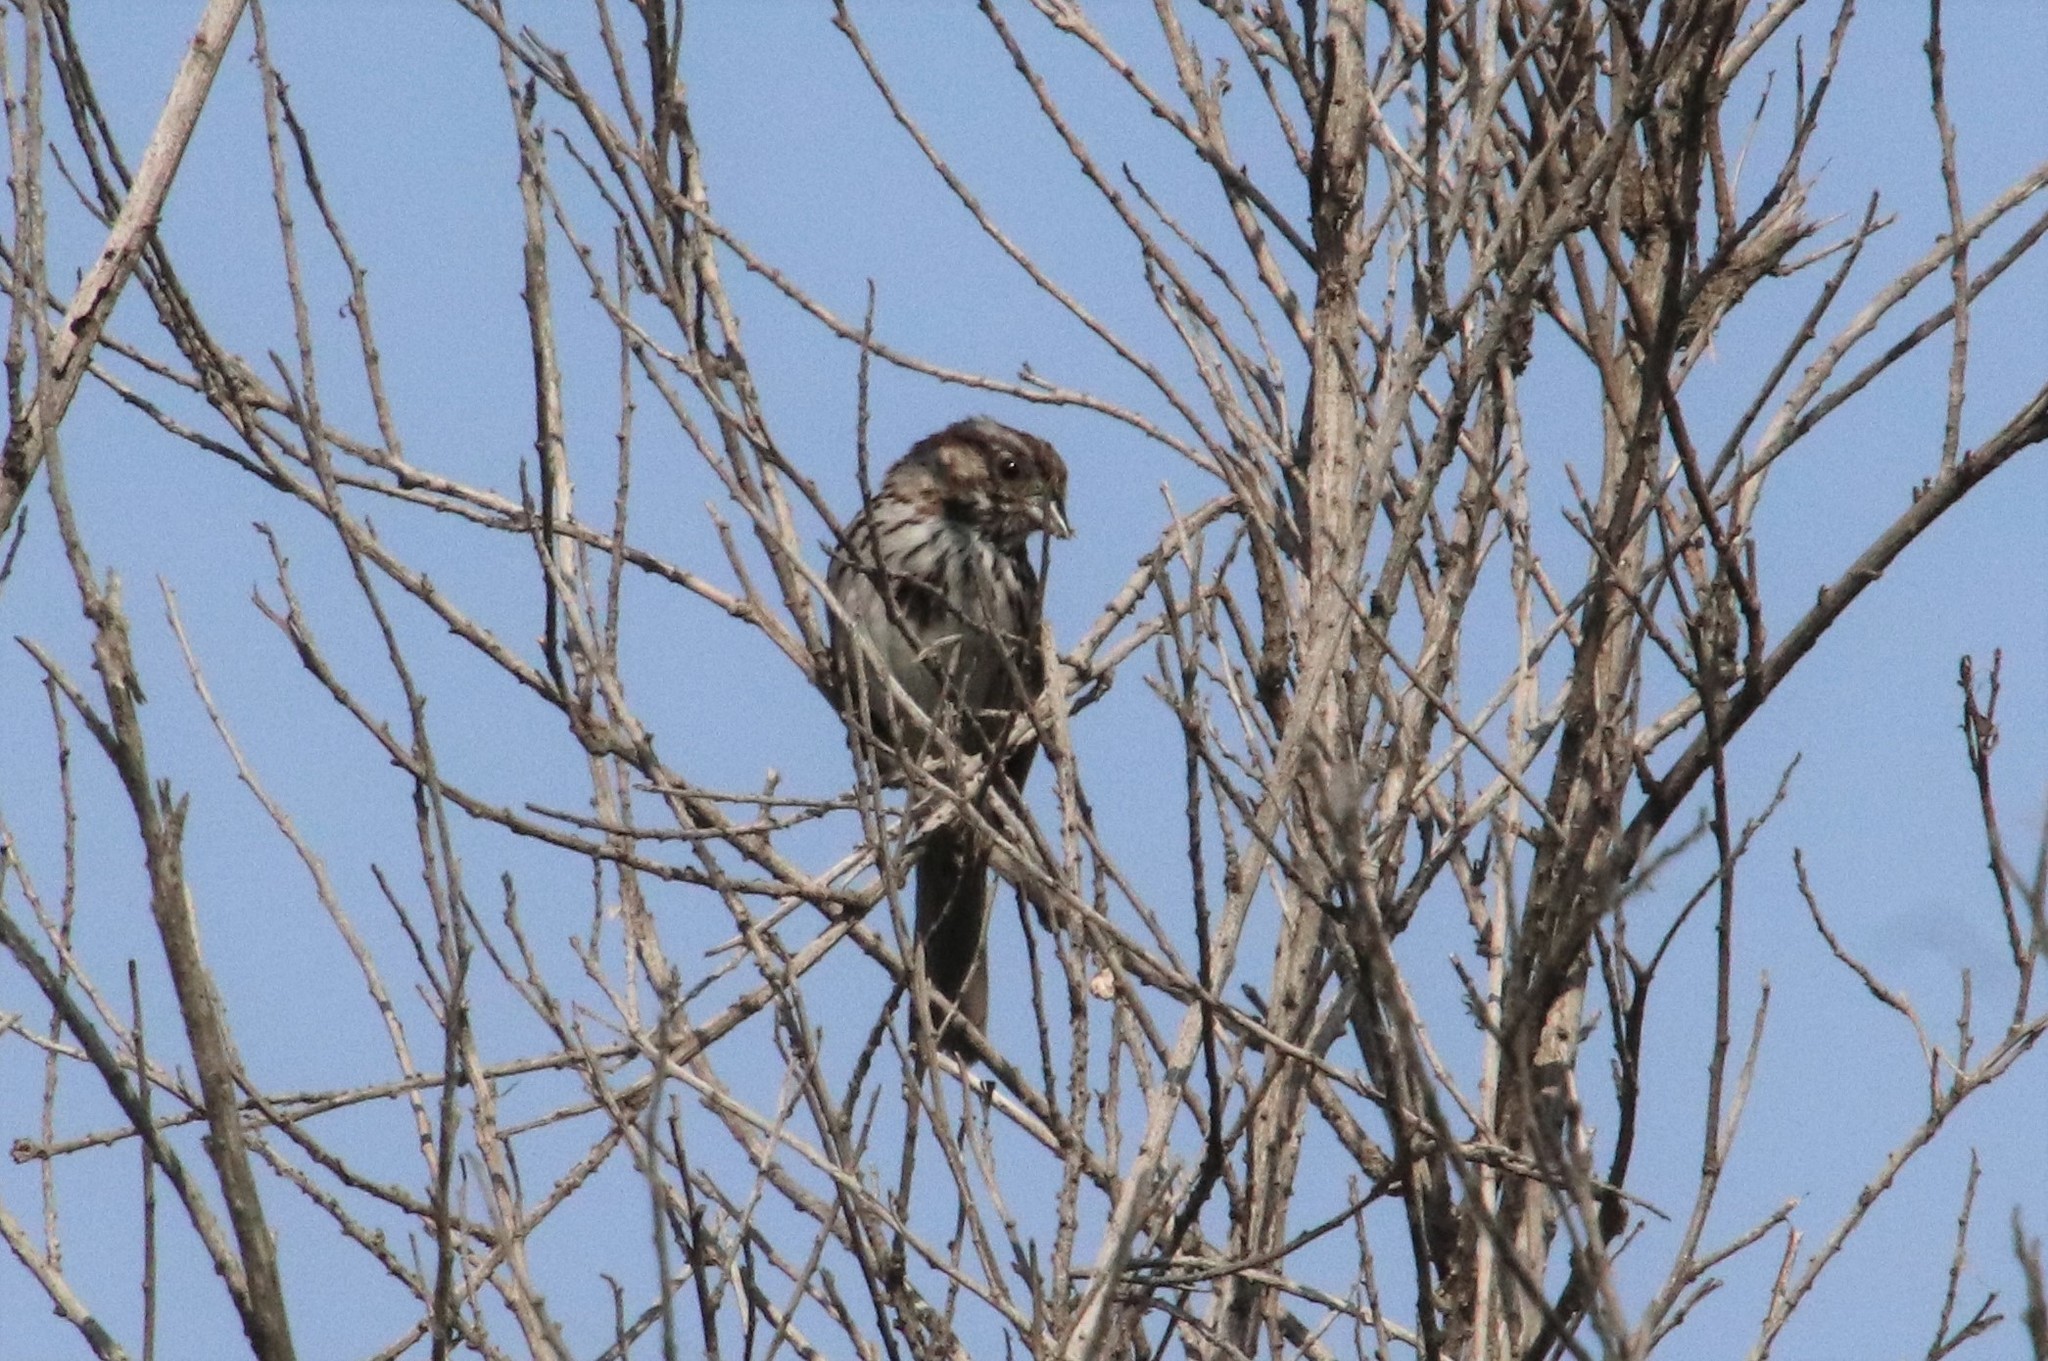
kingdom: Animalia
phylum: Chordata
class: Aves
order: Passeriformes
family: Passerellidae
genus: Melospiza
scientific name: Melospiza melodia
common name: Song sparrow
